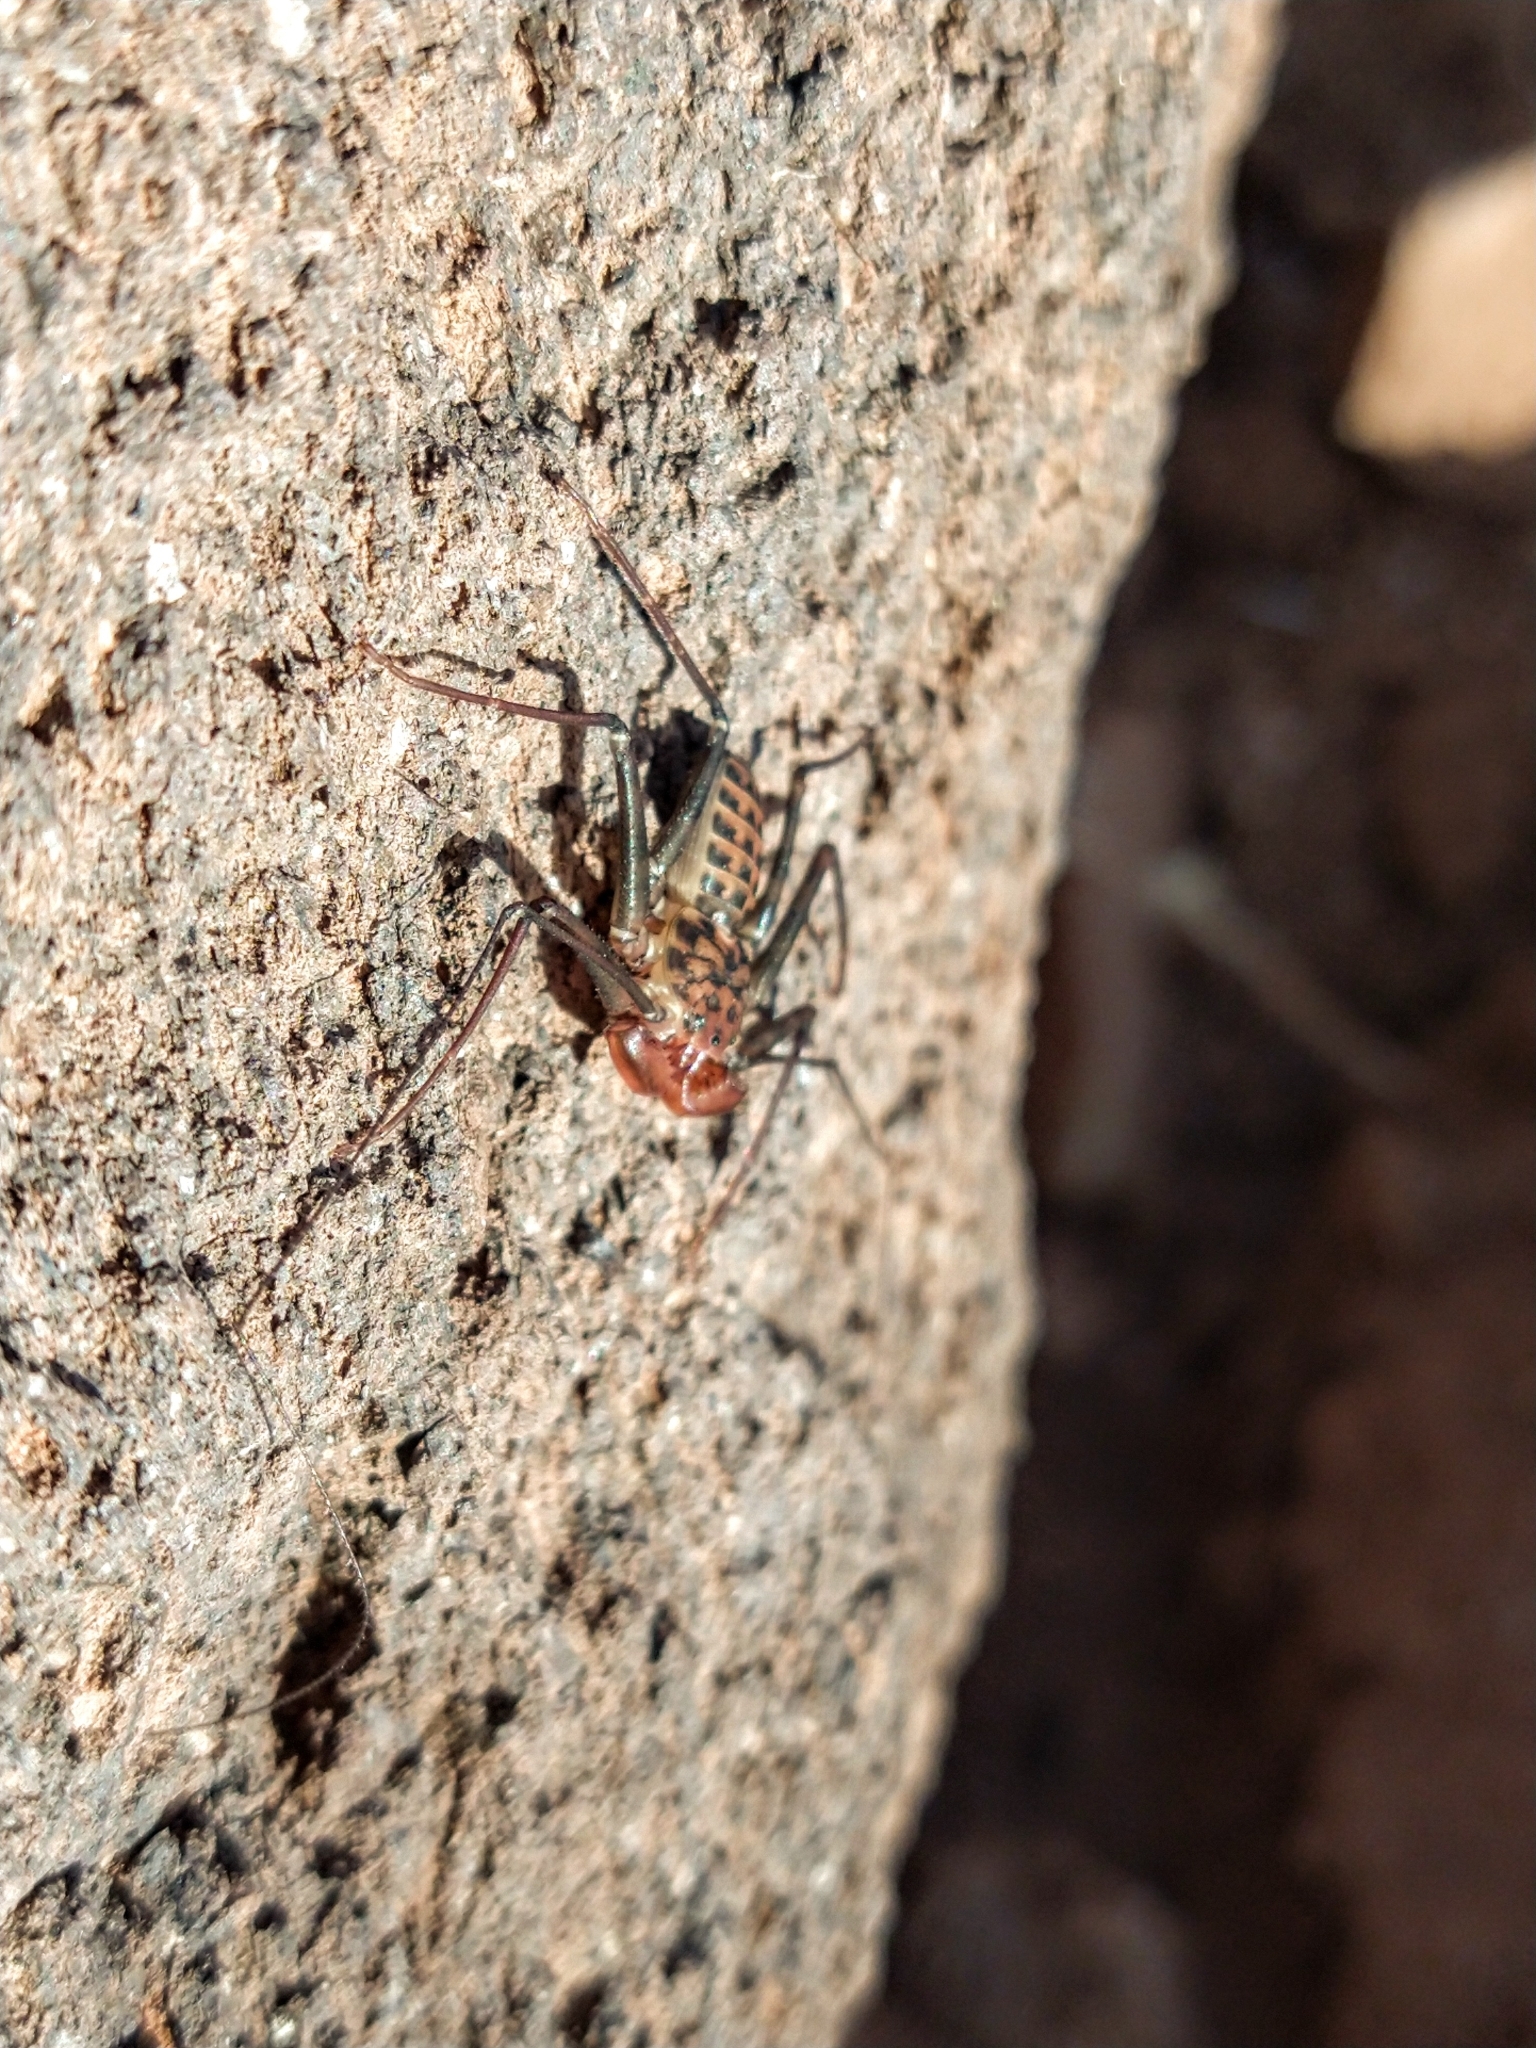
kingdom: Animalia
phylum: Arthropoda
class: Arachnida
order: Amblypygi
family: Phrynidae
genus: Phrynus
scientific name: Phrynus asperatipes
